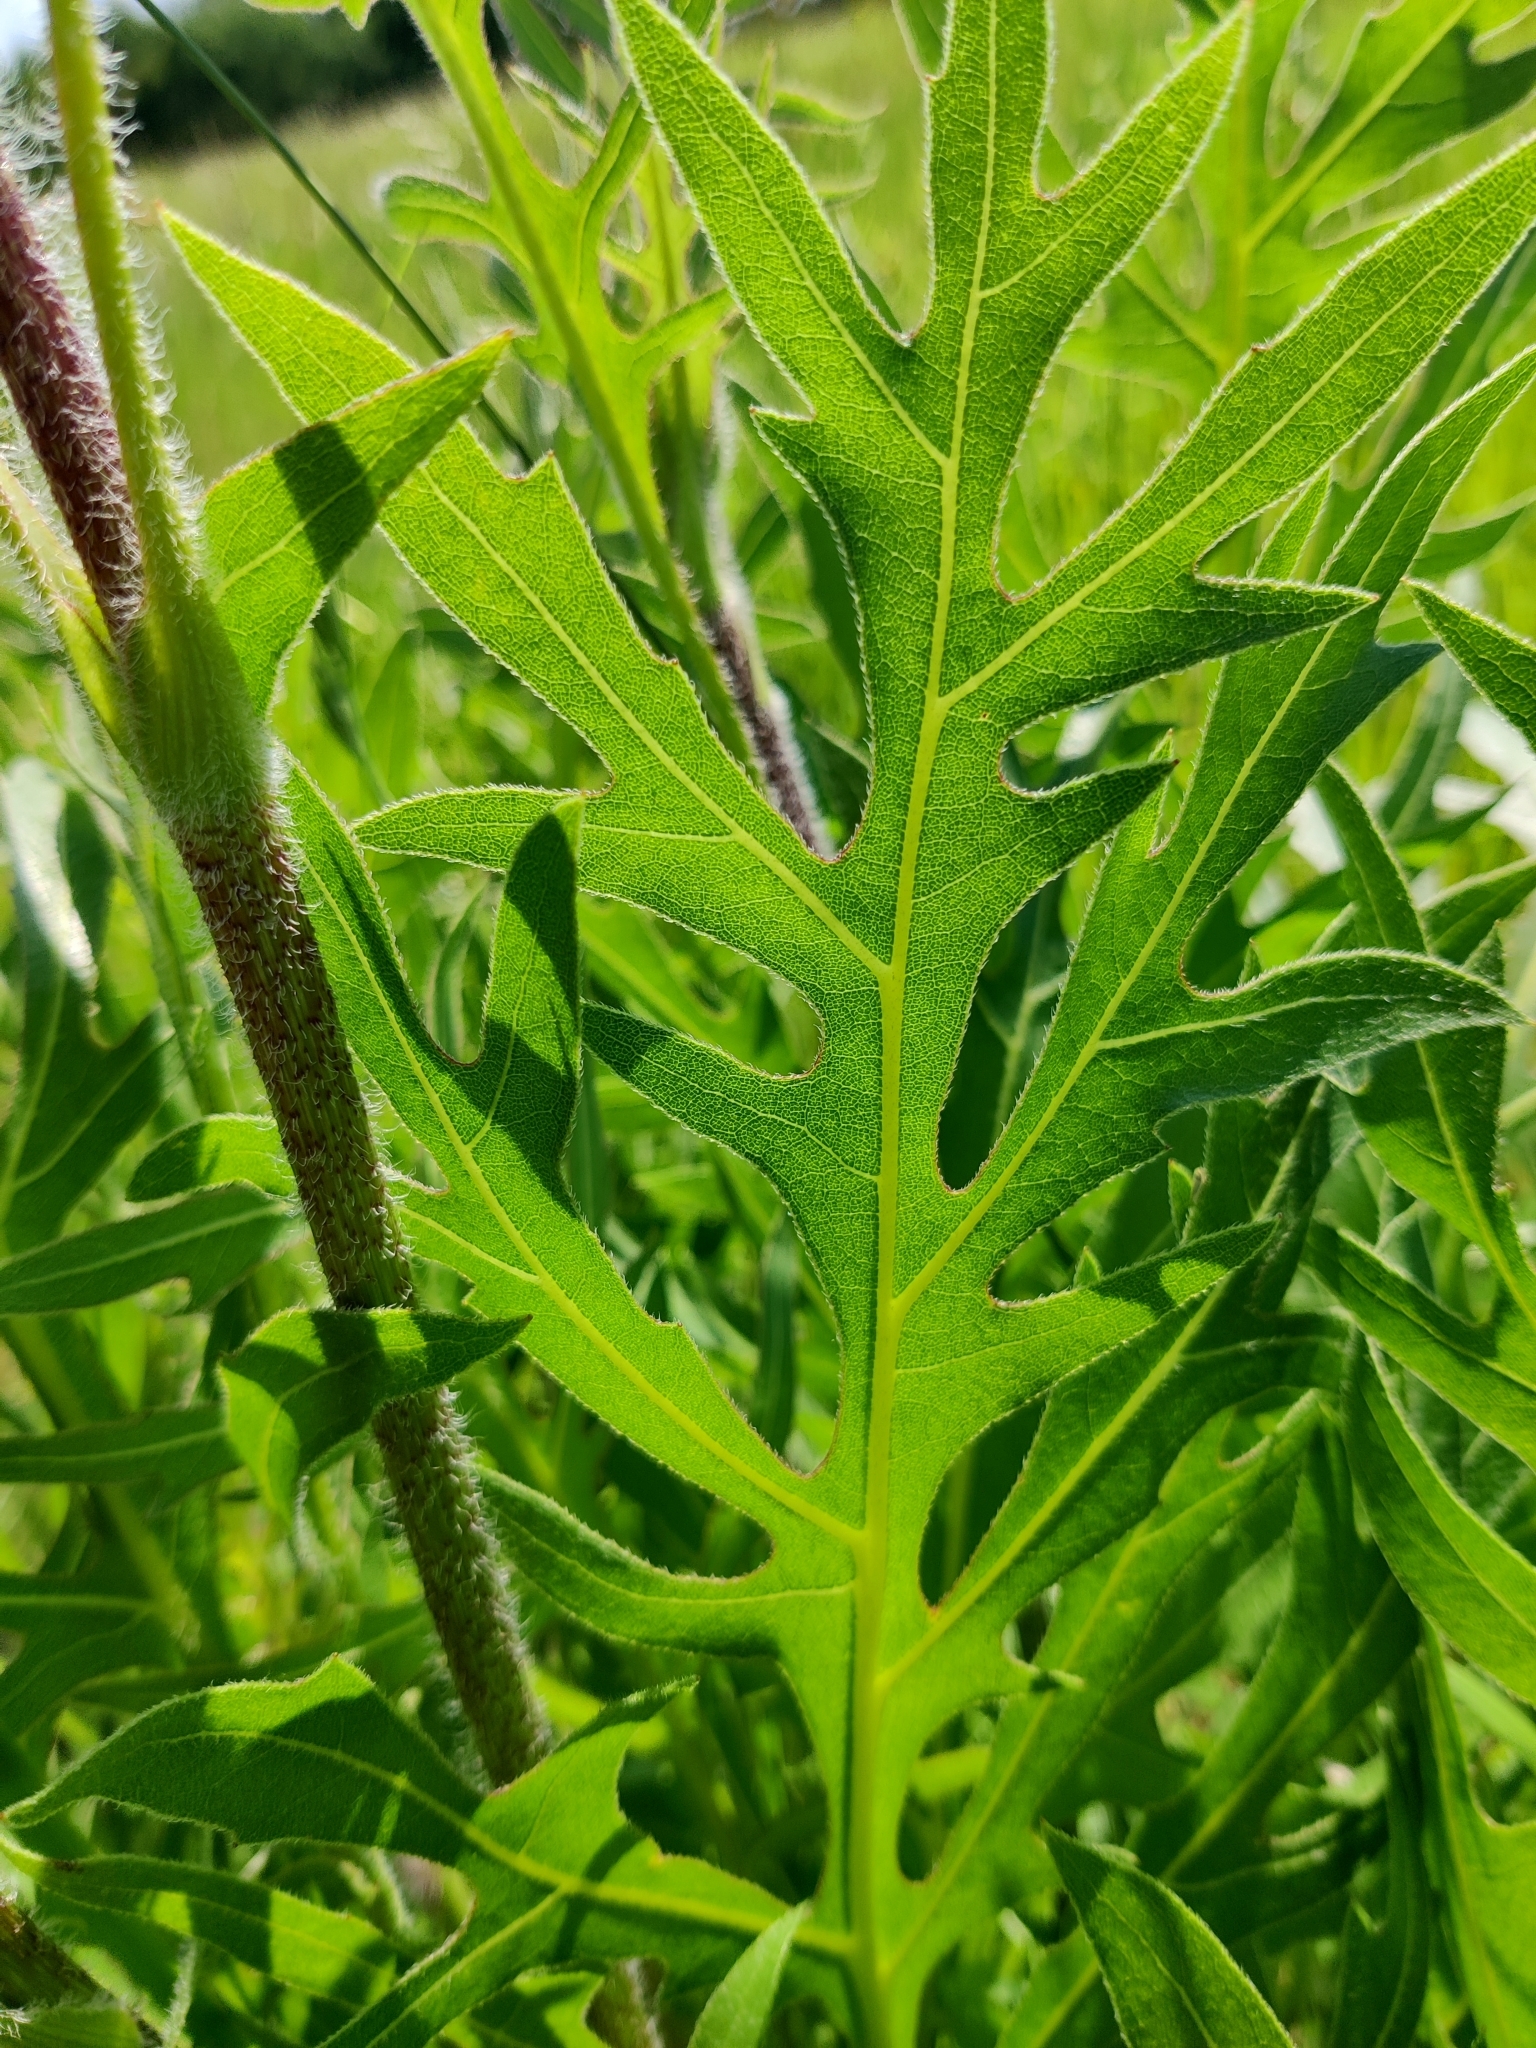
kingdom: Plantae
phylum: Tracheophyta
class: Magnoliopsida
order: Asterales
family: Asteraceae
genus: Silphium
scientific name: Silphium laciniatum
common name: Polarplant
